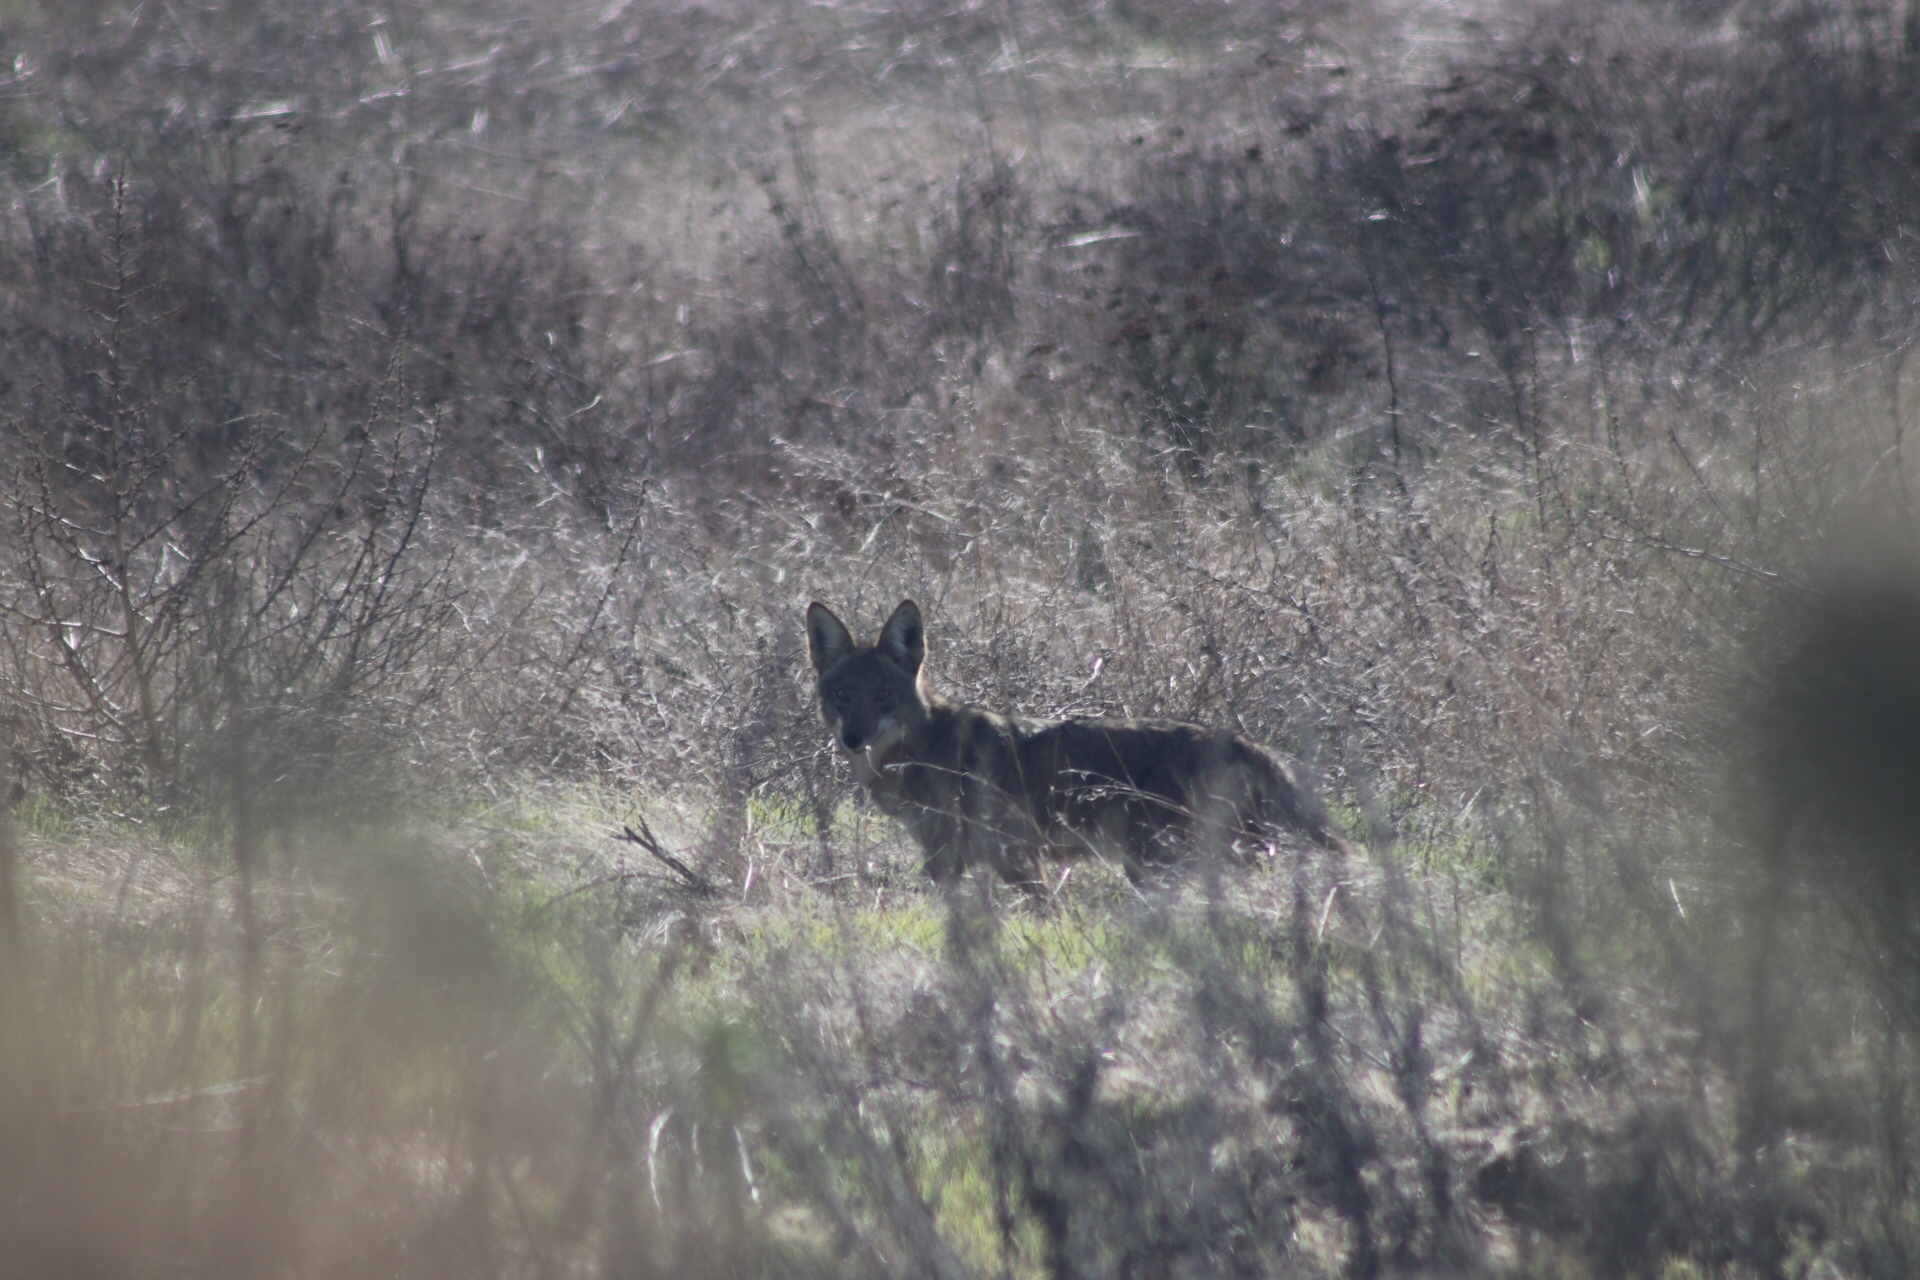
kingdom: Animalia
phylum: Chordata
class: Mammalia
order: Carnivora
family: Canidae
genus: Canis
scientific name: Canis latrans
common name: Coyote
